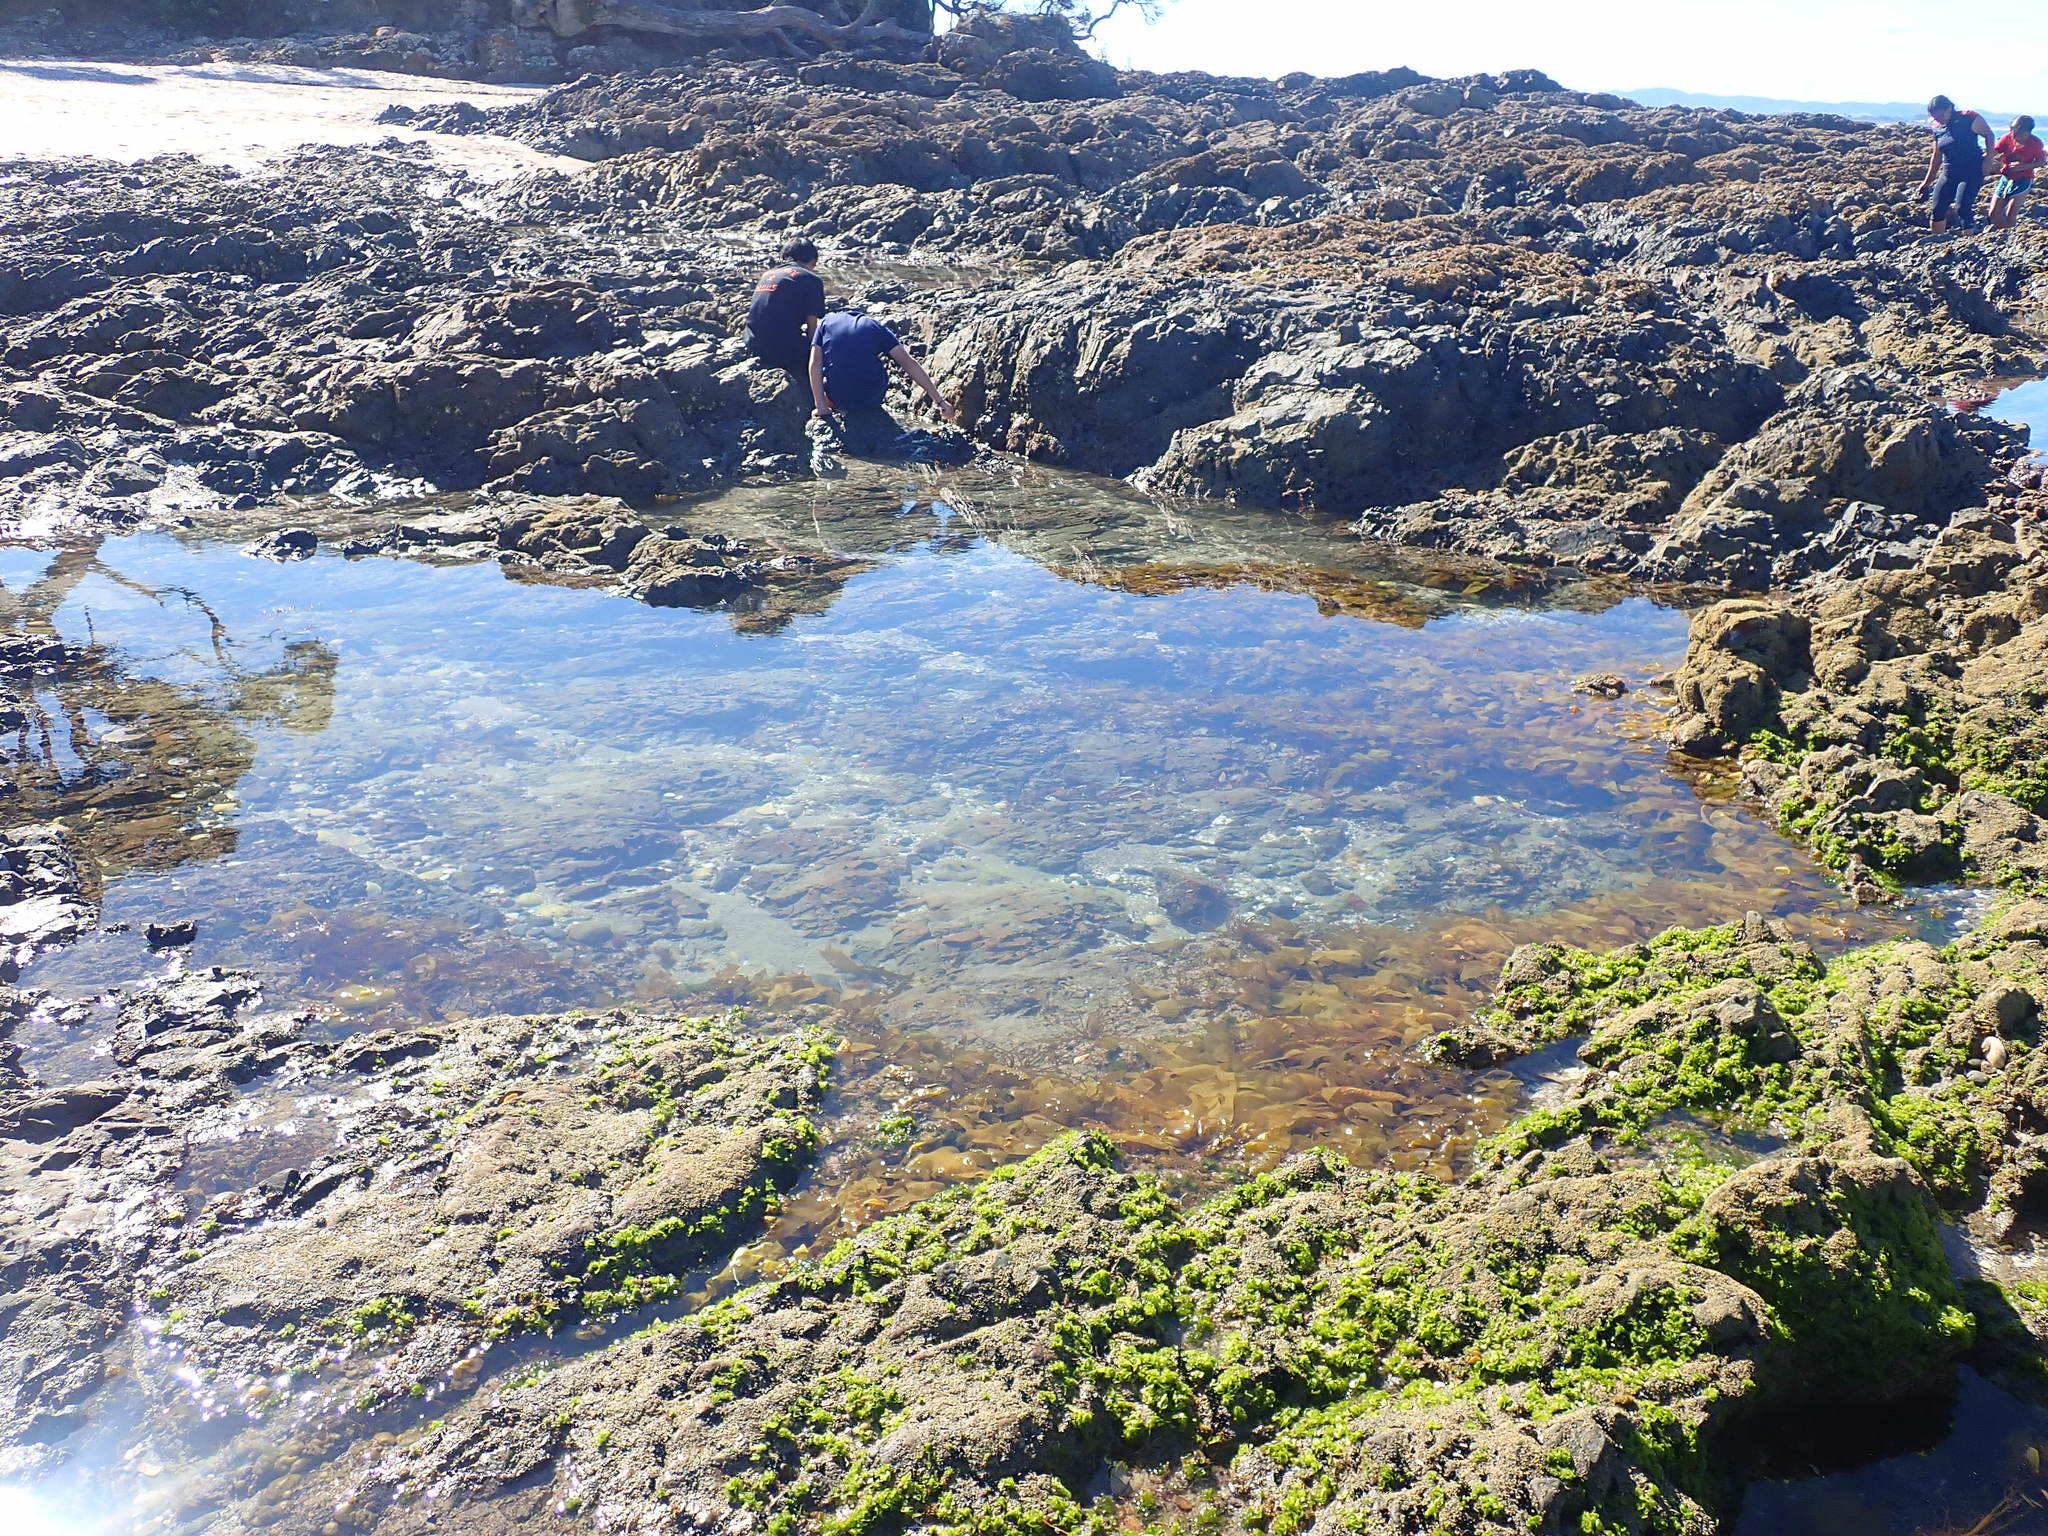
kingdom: Plantae
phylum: Rhodophyta
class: Florideophyceae
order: Halymeniales
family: Halymeniaceae
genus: Aeodes
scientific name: Aeodes nitidissima
